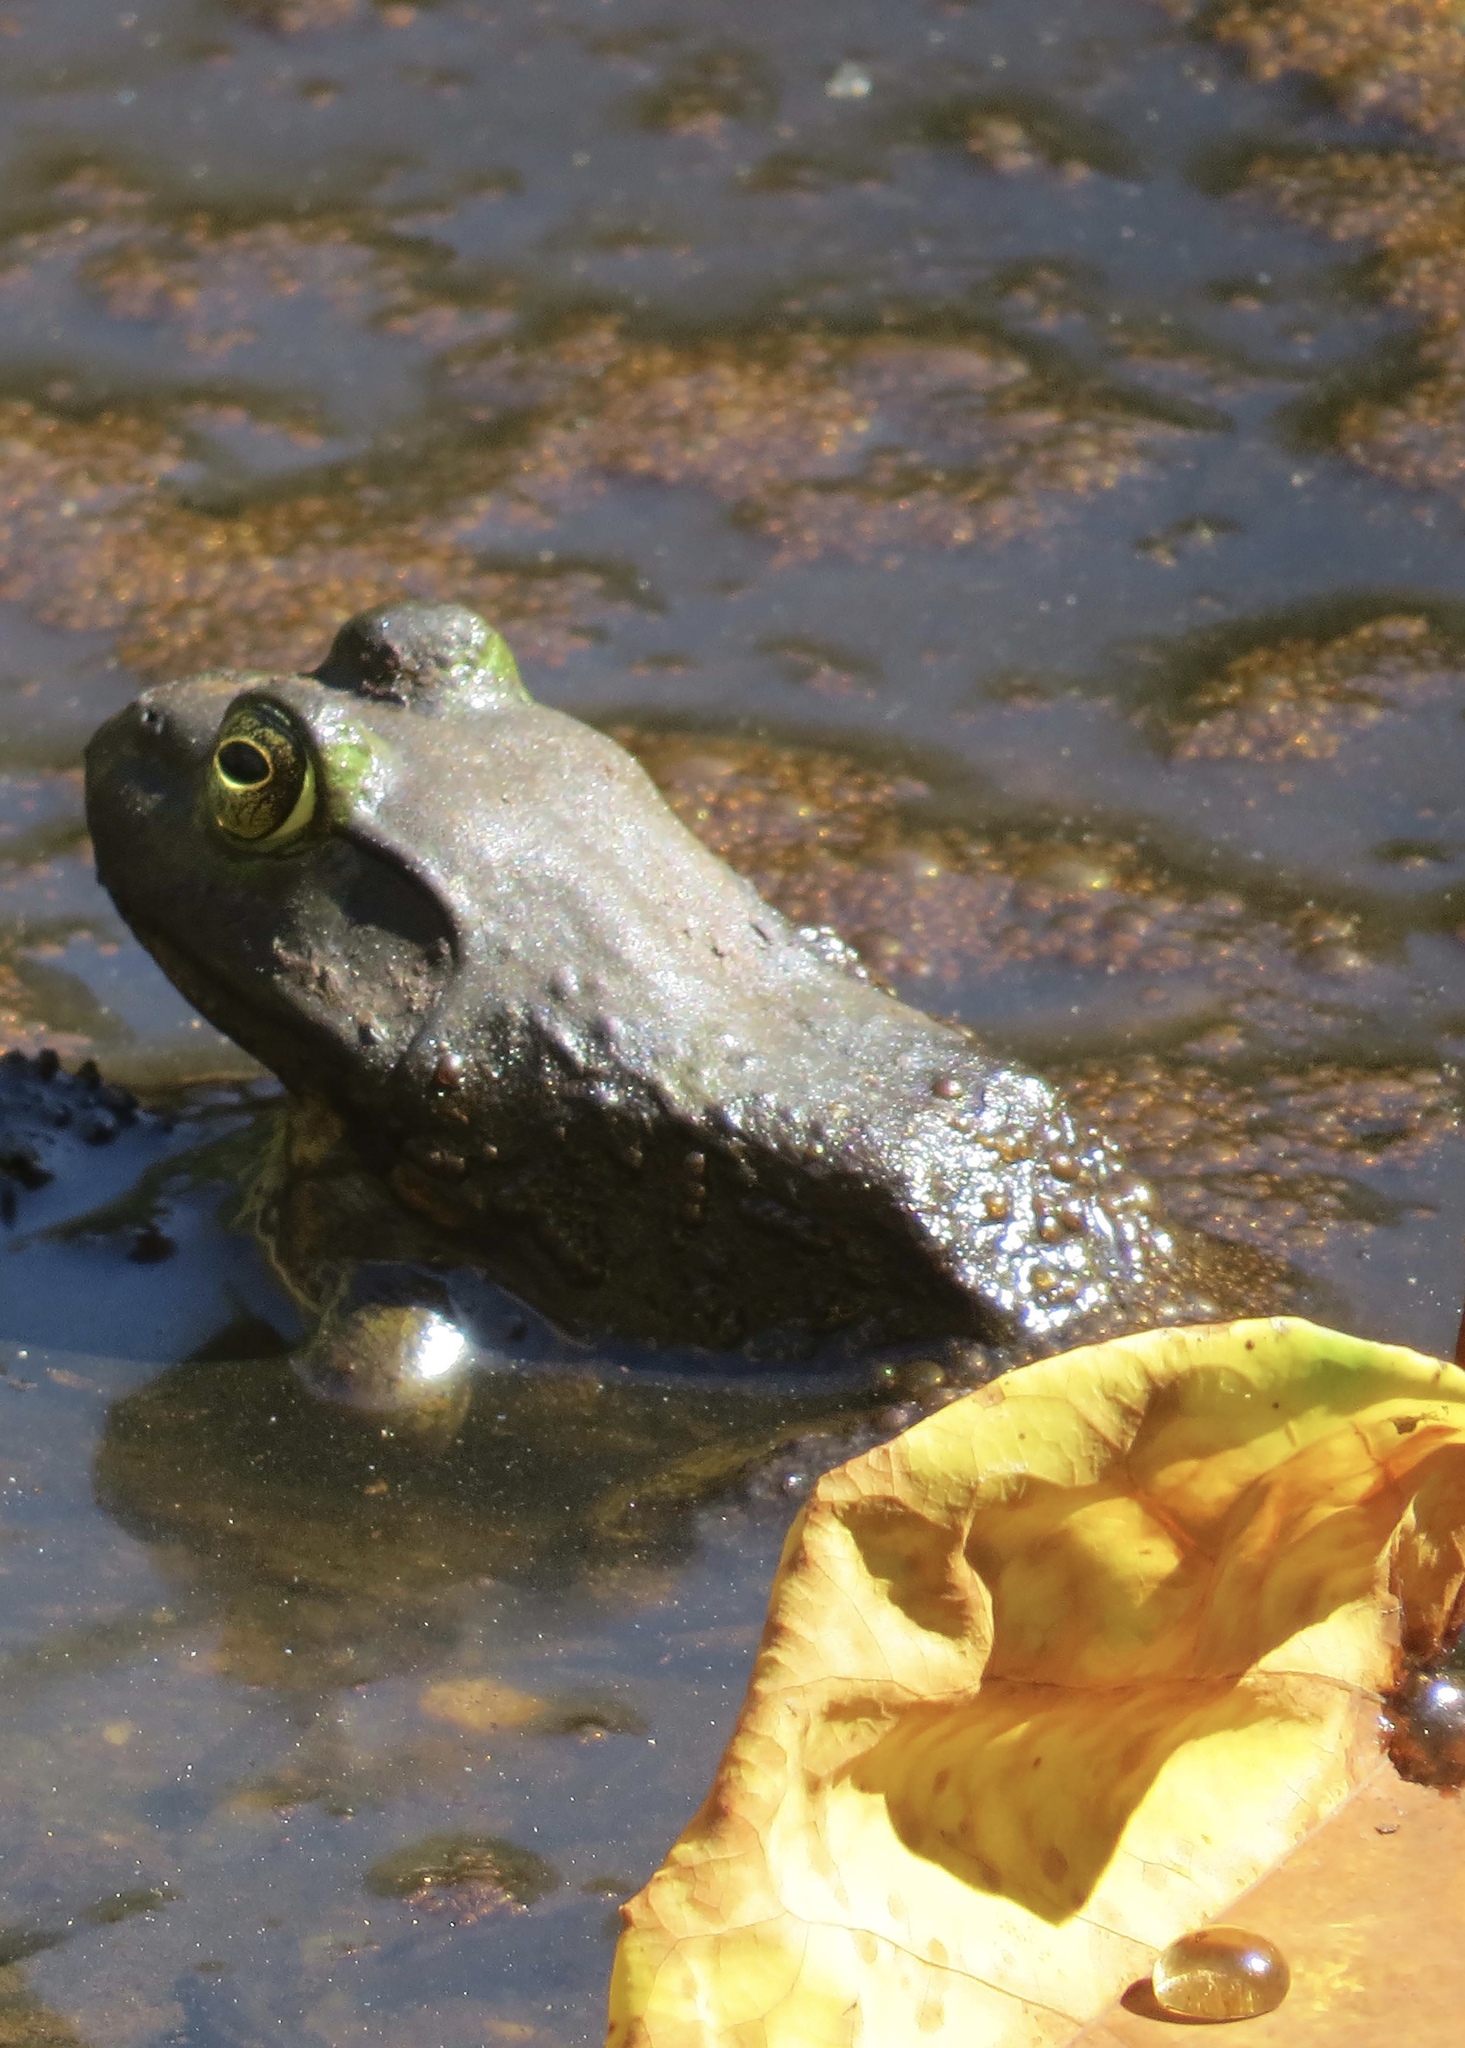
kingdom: Animalia
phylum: Chordata
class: Amphibia
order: Anura
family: Ranidae
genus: Lithobates
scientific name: Lithobates catesbeianus
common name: American bullfrog
